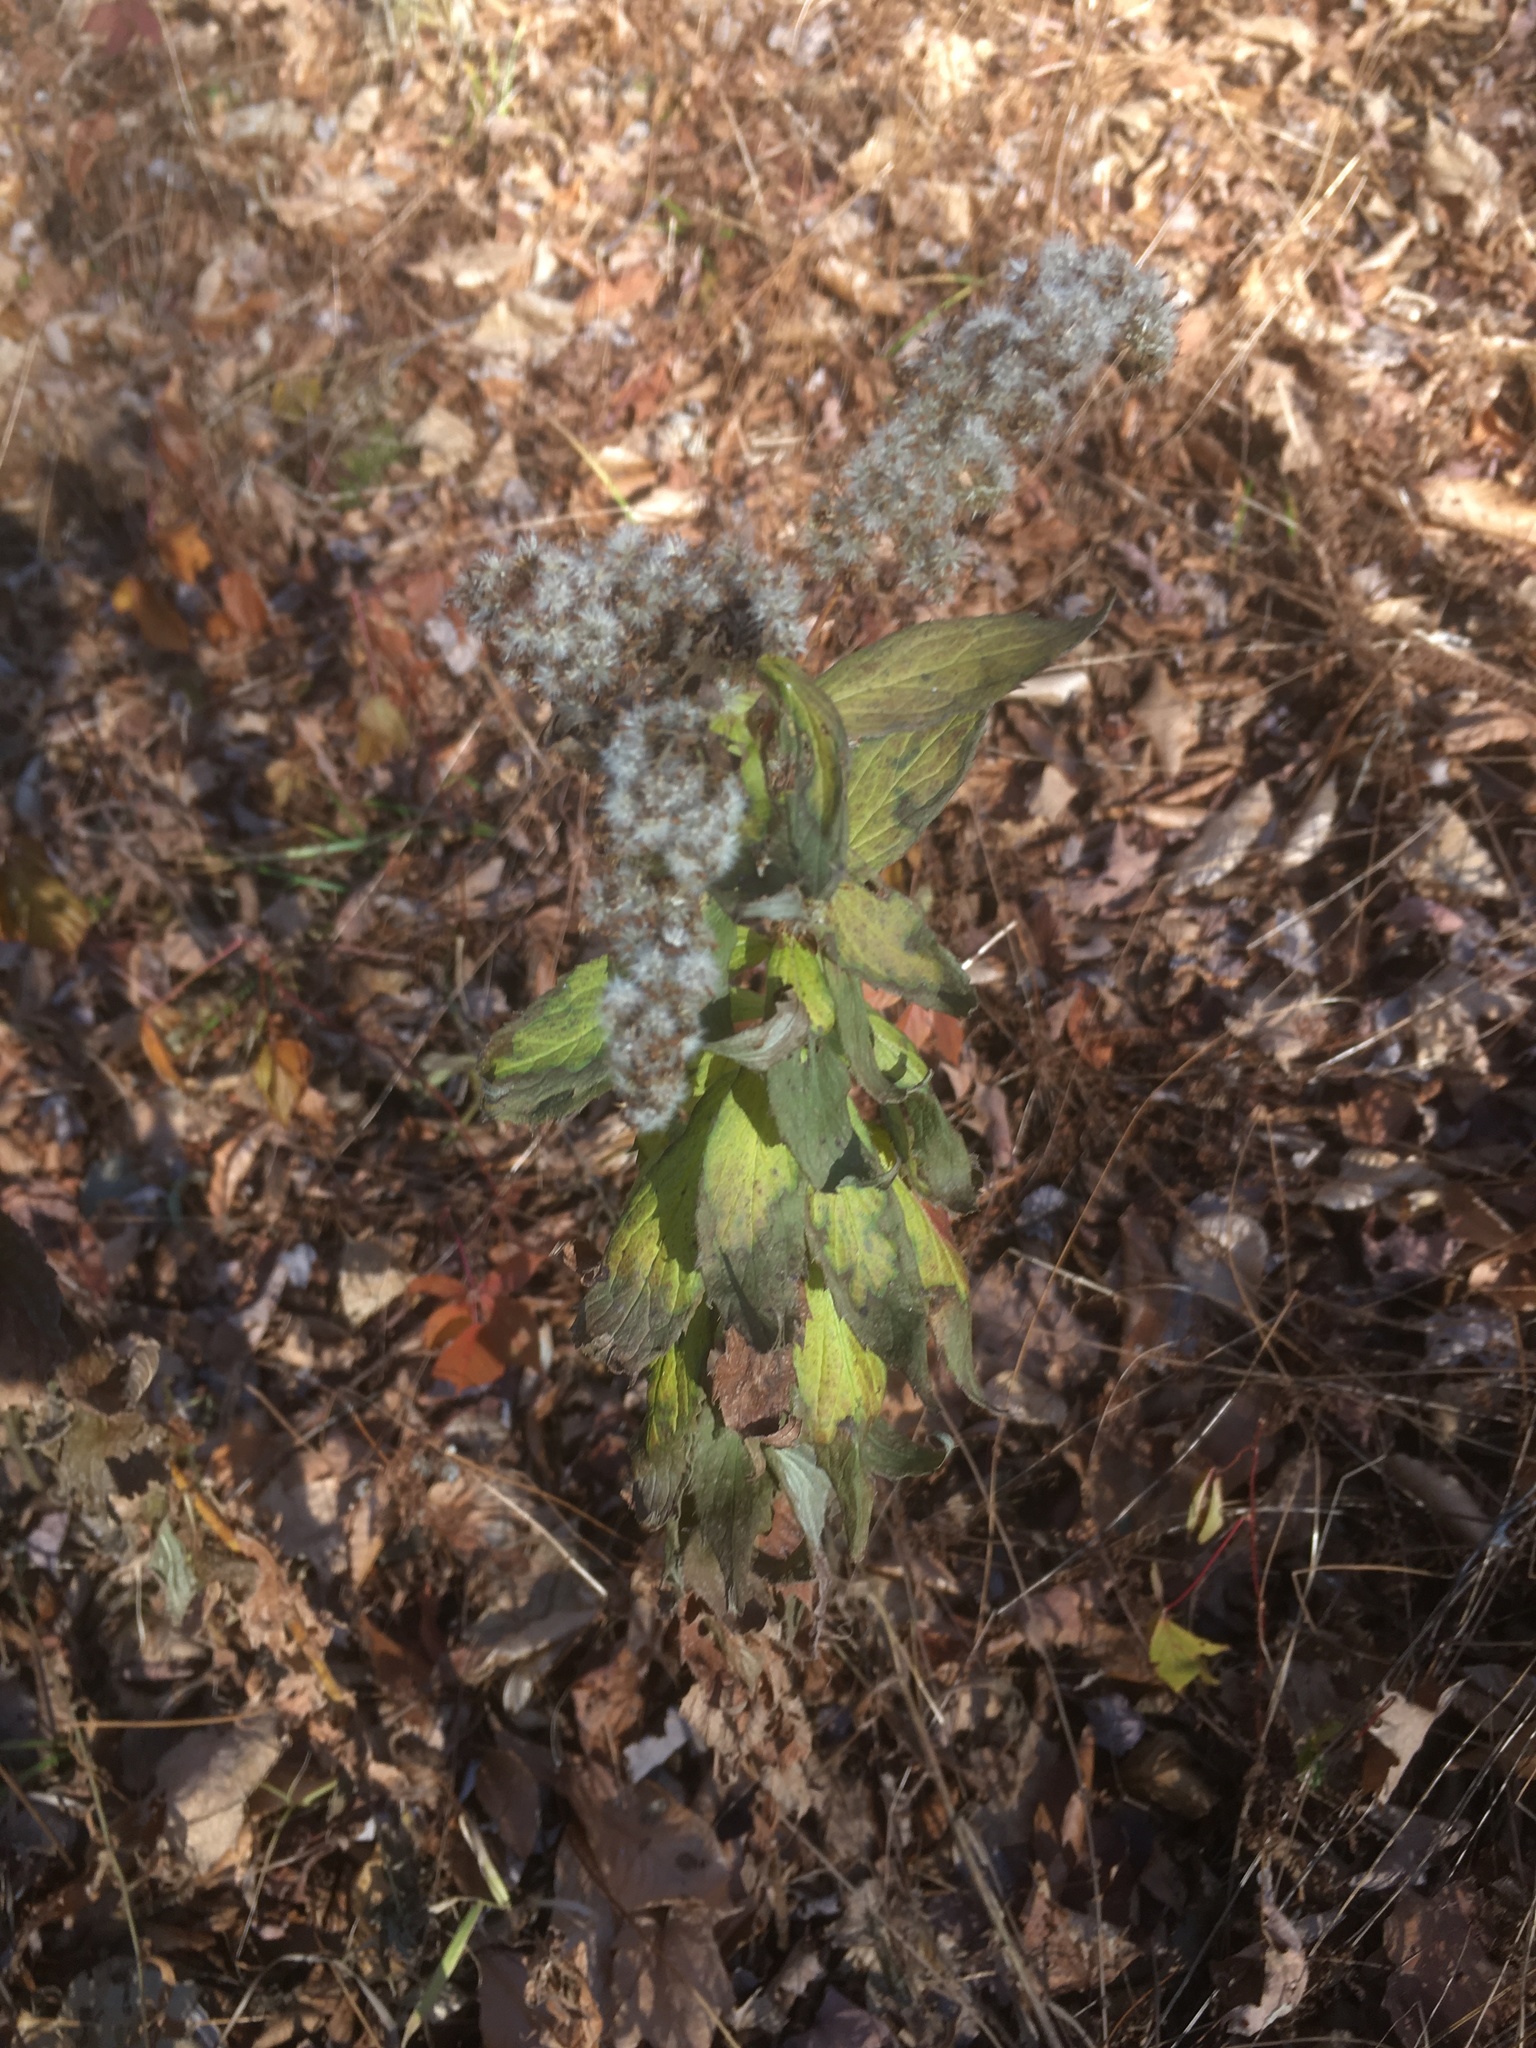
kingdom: Plantae
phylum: Tracheophyta
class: Magnoliopsida
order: Asterales
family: Asteraceae
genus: Solidago
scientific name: Solidago rugosa
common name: Rough-stemmed goldenrod
